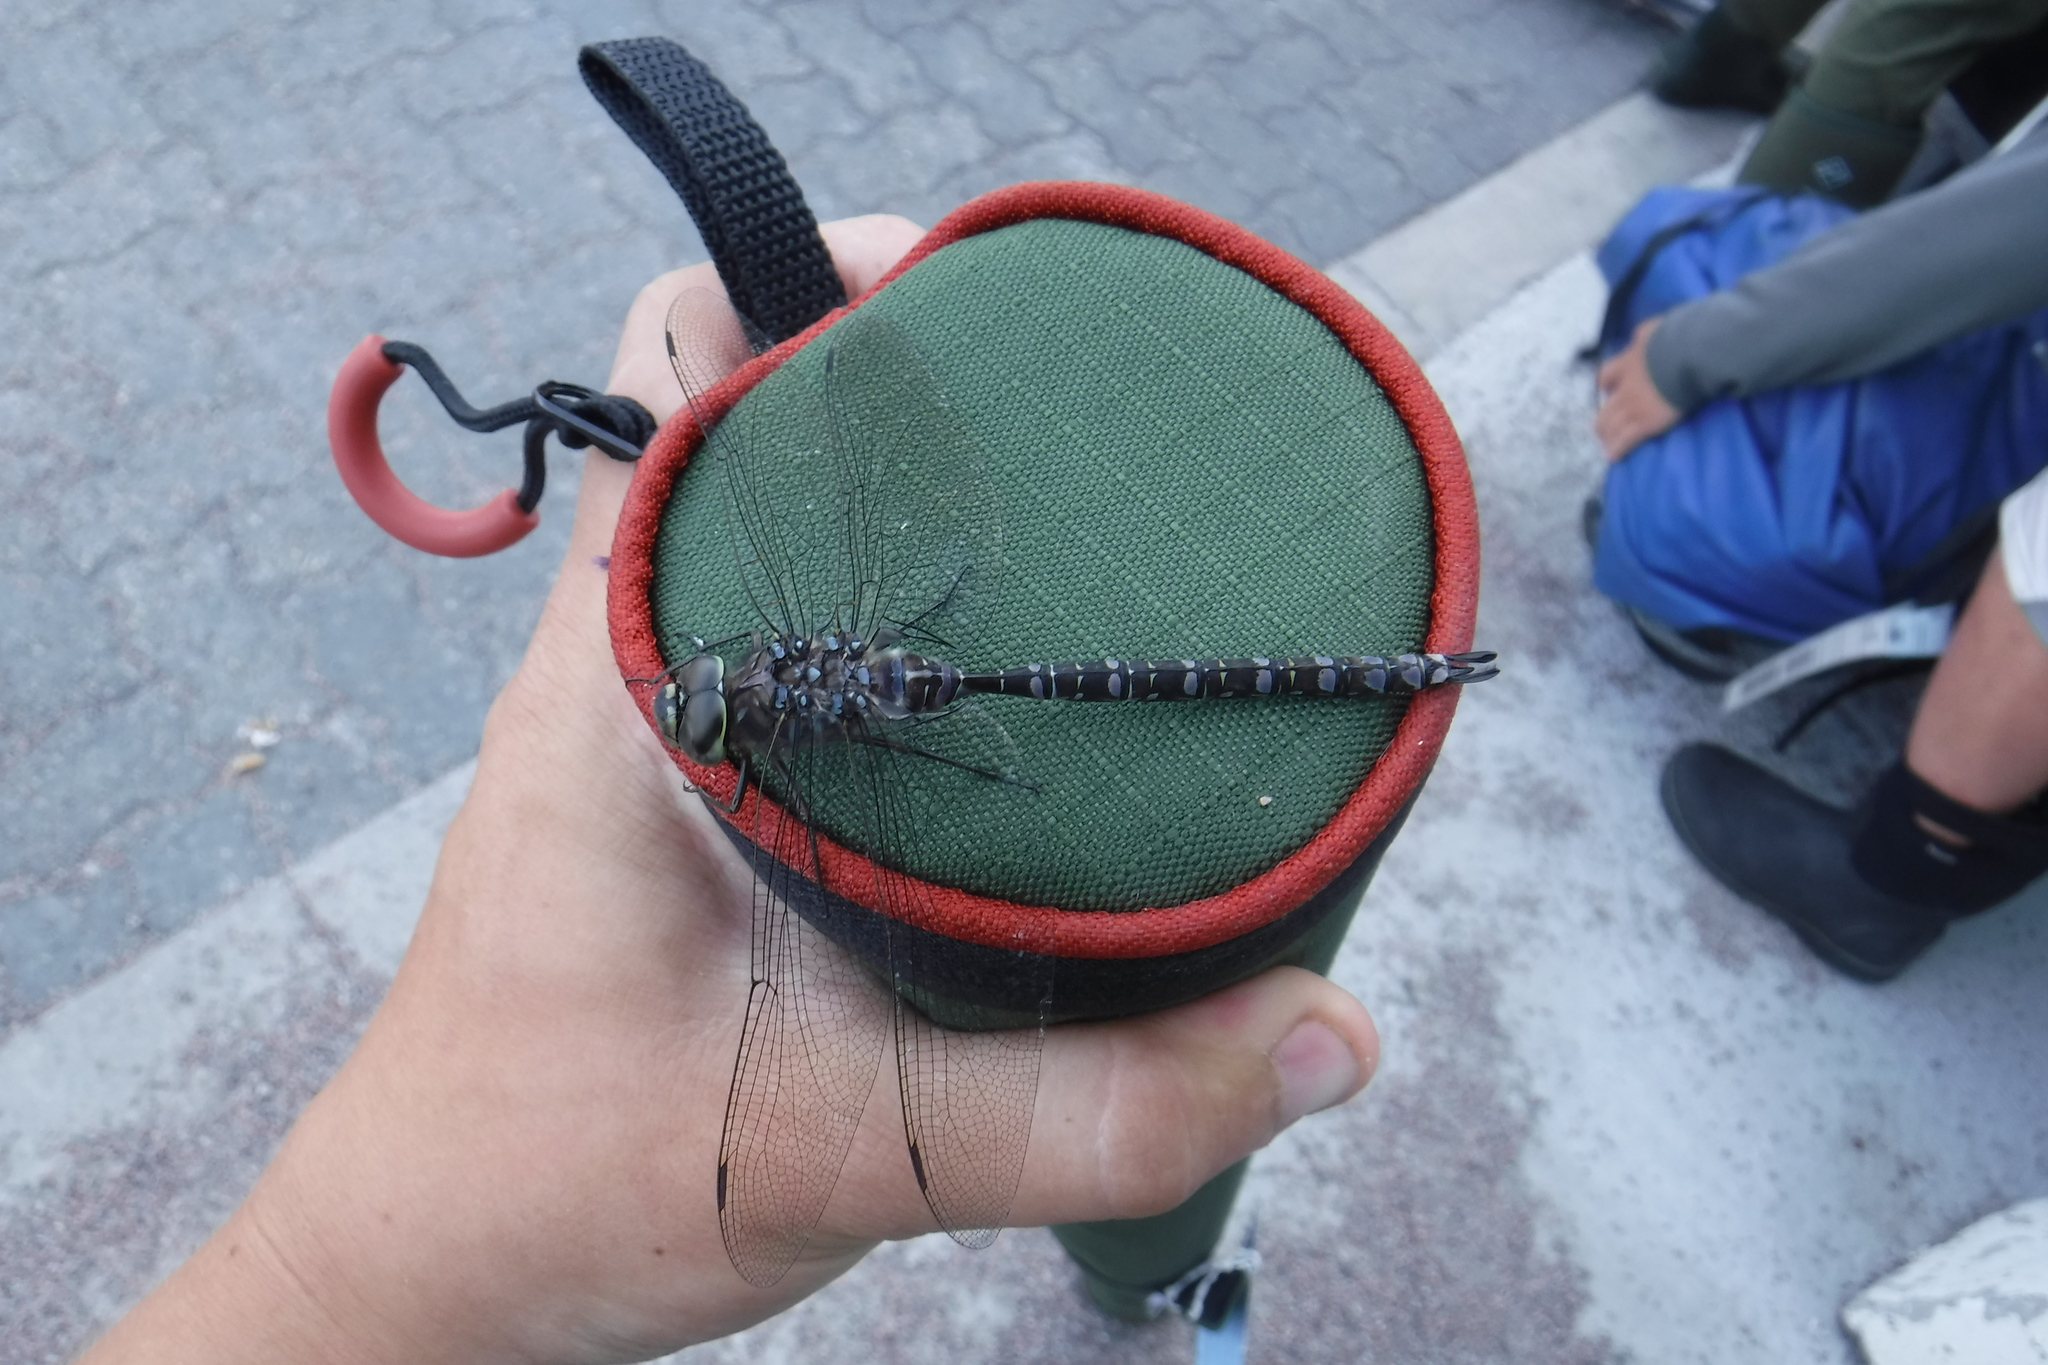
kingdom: Animalia
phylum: Arthropoda
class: Insecta
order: Odonata
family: Aeshnidae
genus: Aeshna
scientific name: Aeshna eremita
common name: Lake darner
